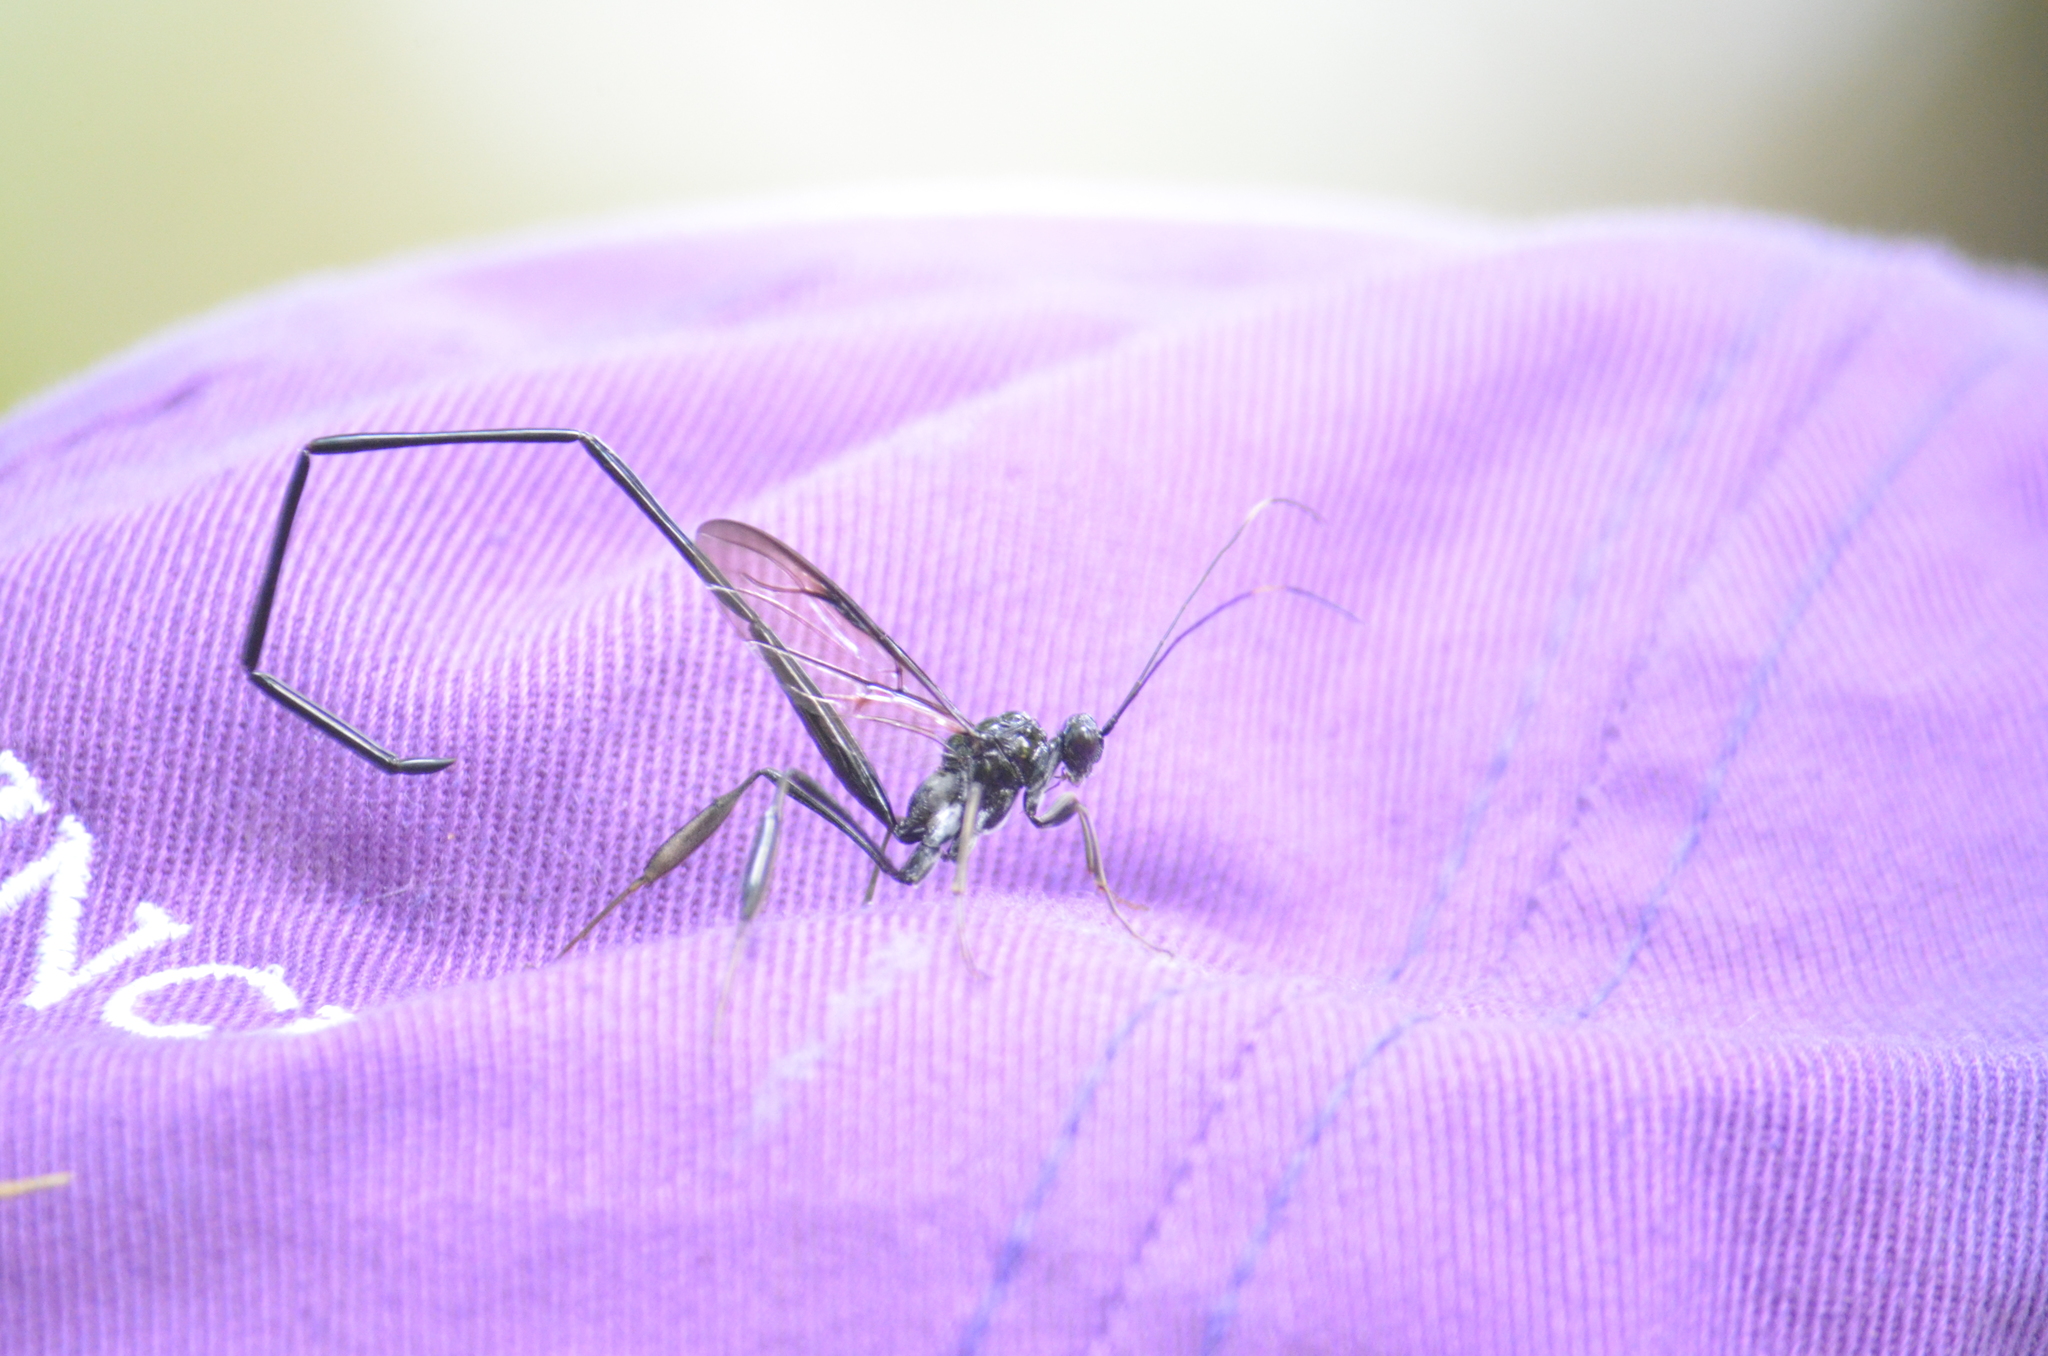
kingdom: Animalia
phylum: Arthropoda
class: Insecta
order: Hymenoptera
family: Pelecinidae
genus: Pelecinus
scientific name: Pelecinus polyturator
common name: American pelecinid wasp
